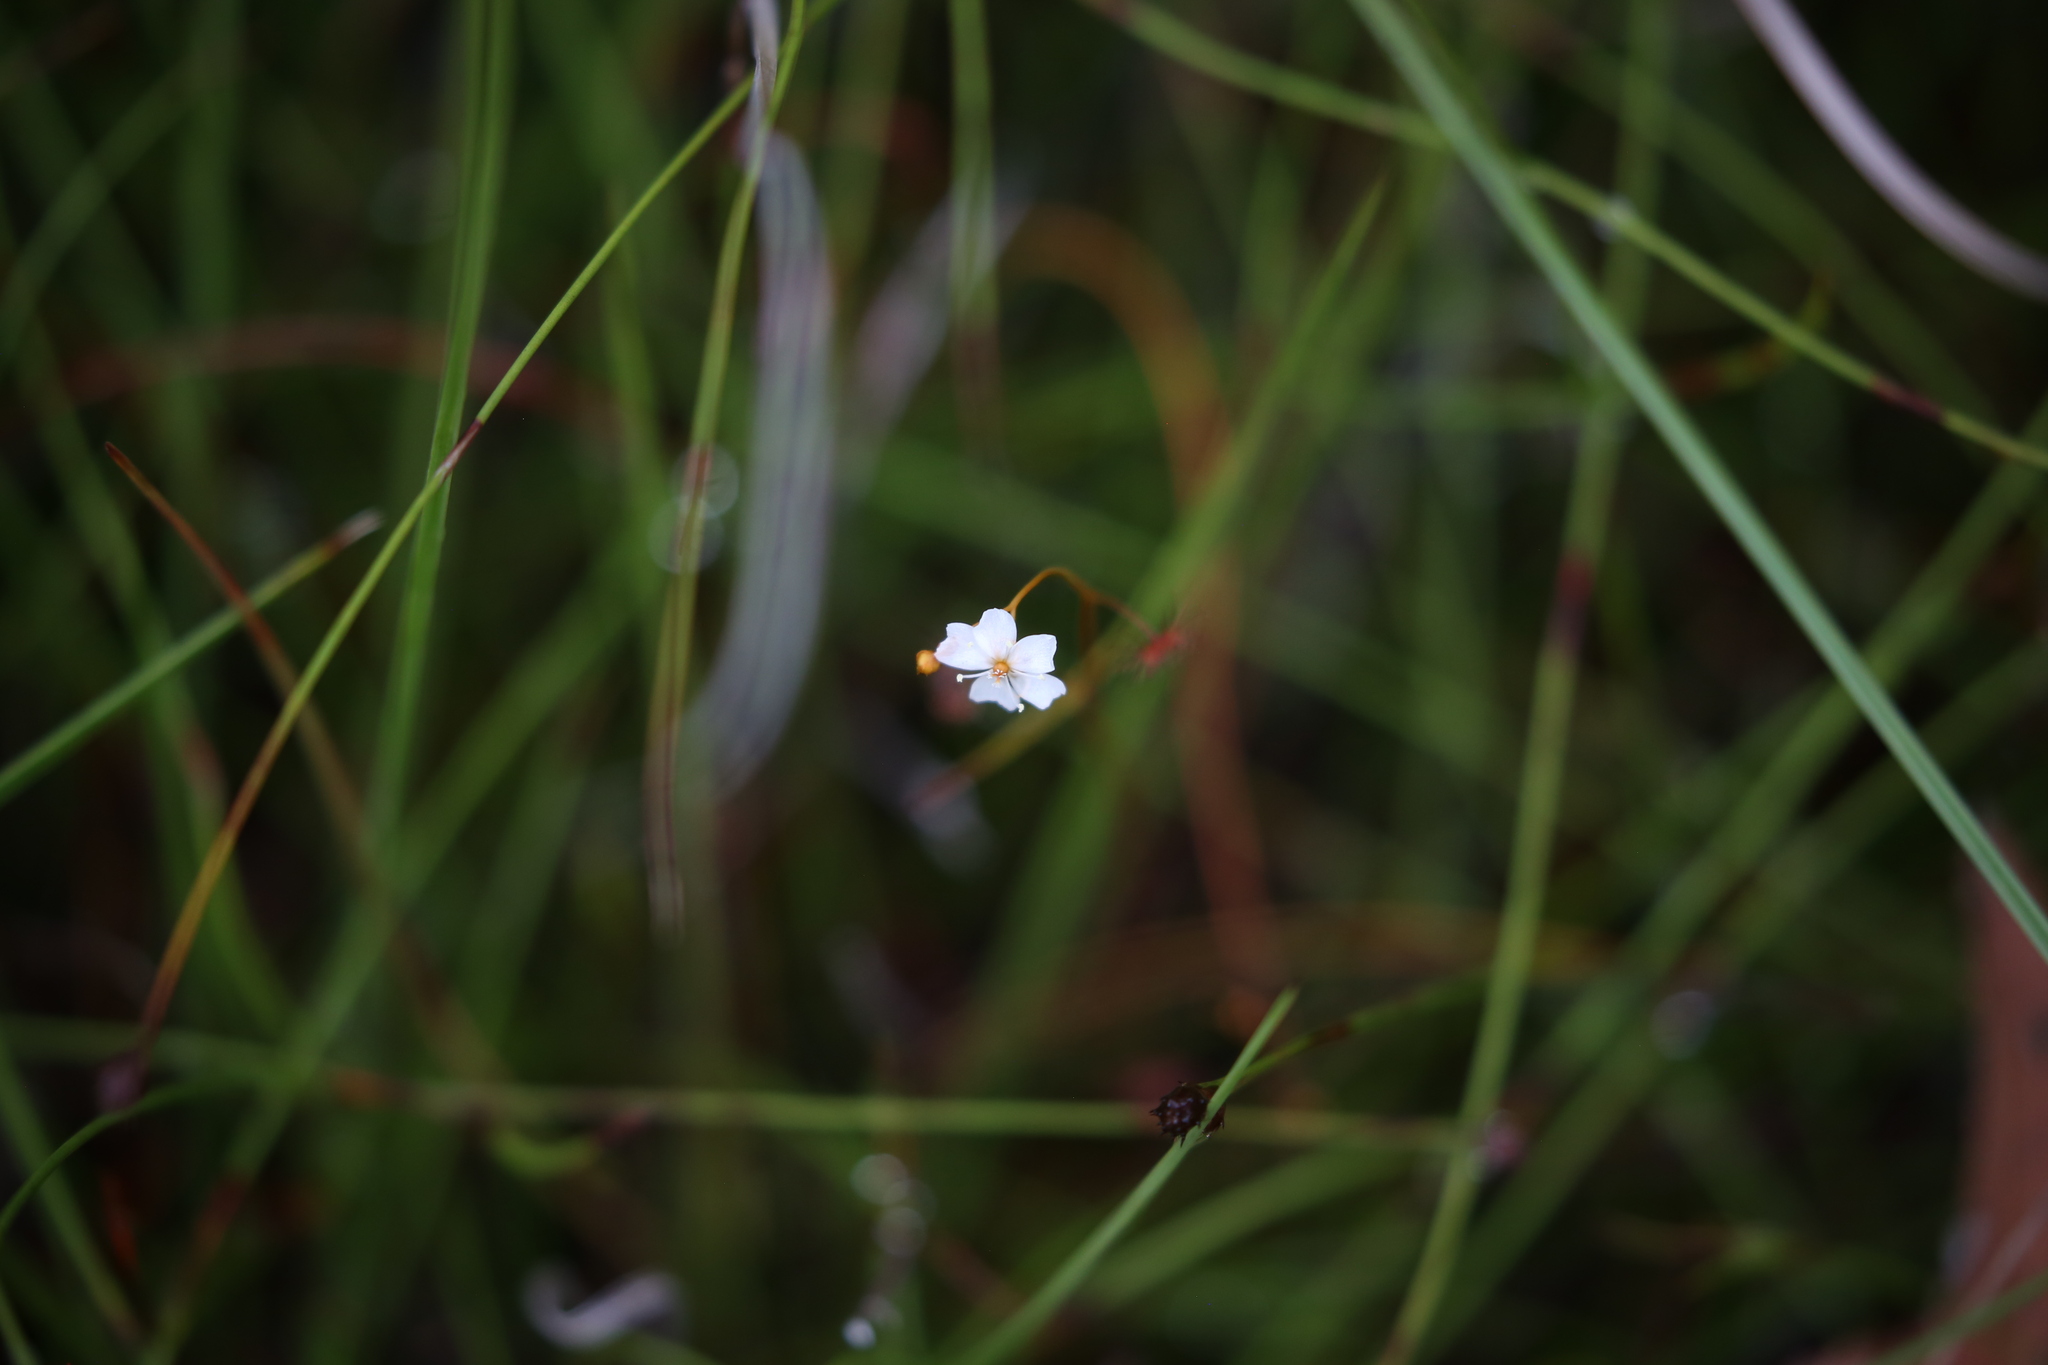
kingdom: Plantae
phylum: Tracheophyta
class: Magnoliopsida
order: Caryophyllales
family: Droseraceae
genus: Drosera
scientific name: Drosera peltata
